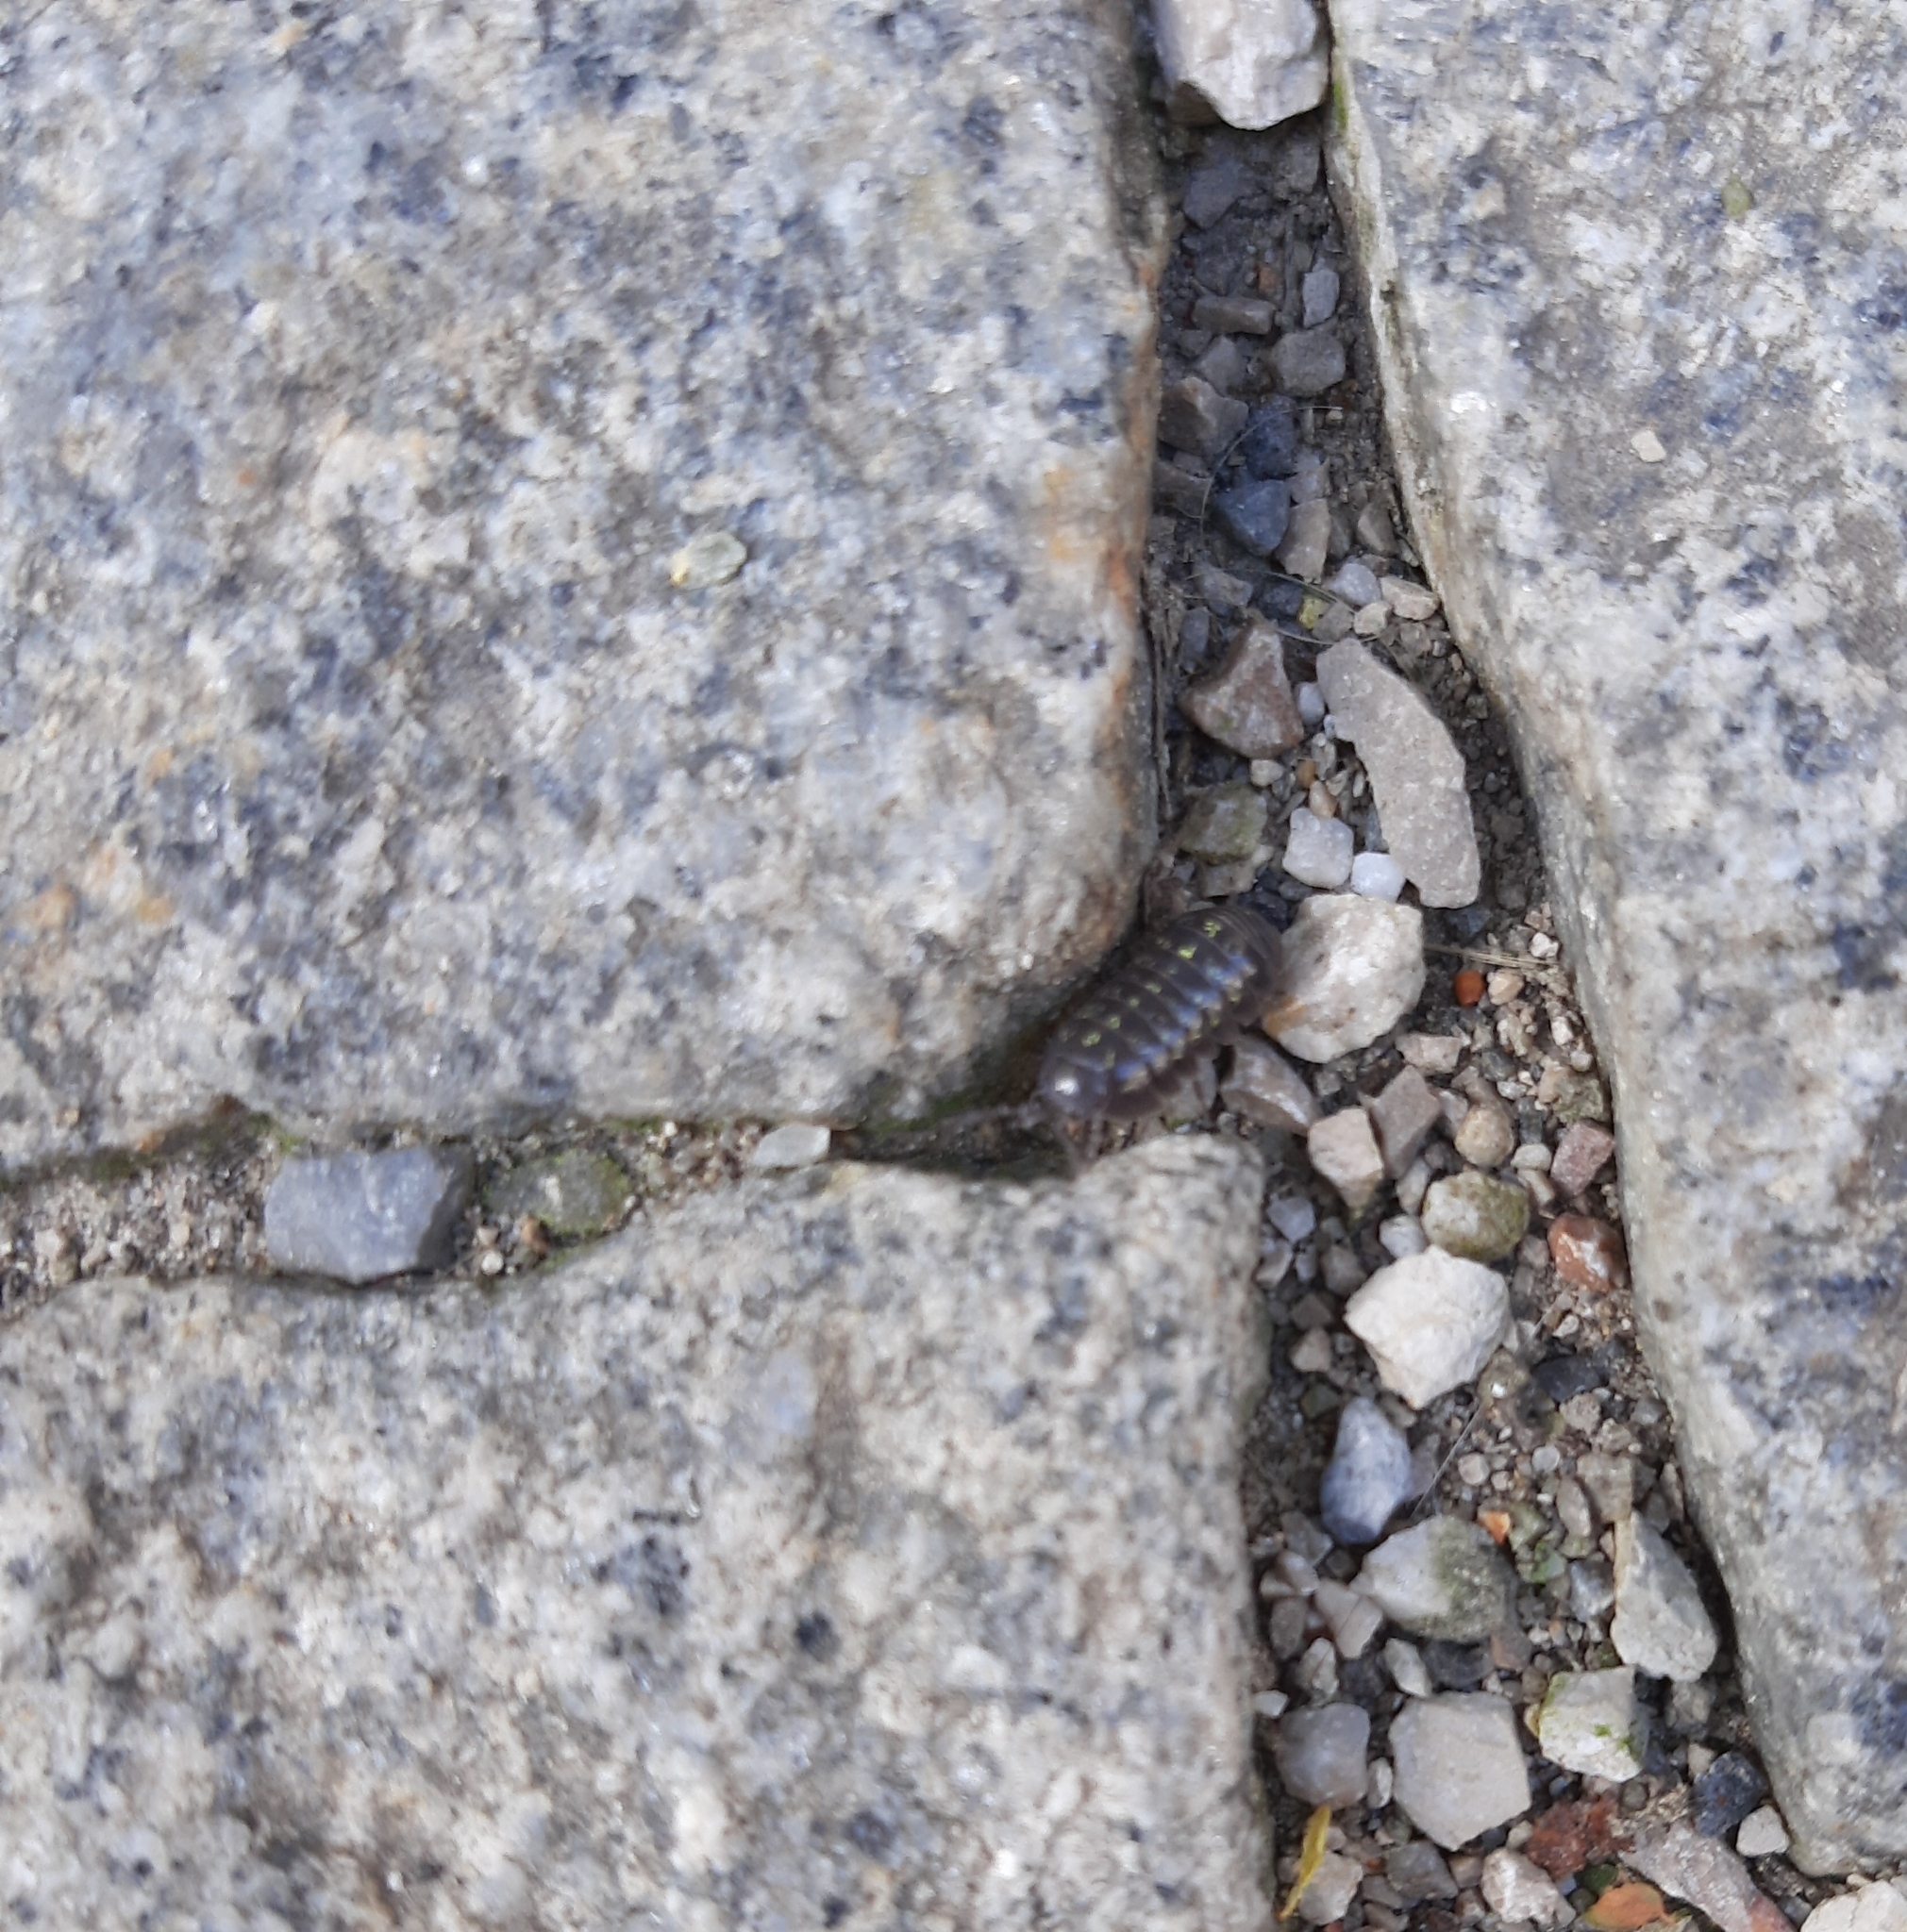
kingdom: Animalia
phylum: Arthropoda
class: Malacostraca
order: Isopoda
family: Armadillidiidae
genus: Armadillidium
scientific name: Armadillidium vulgare
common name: Common pill woodlouse
